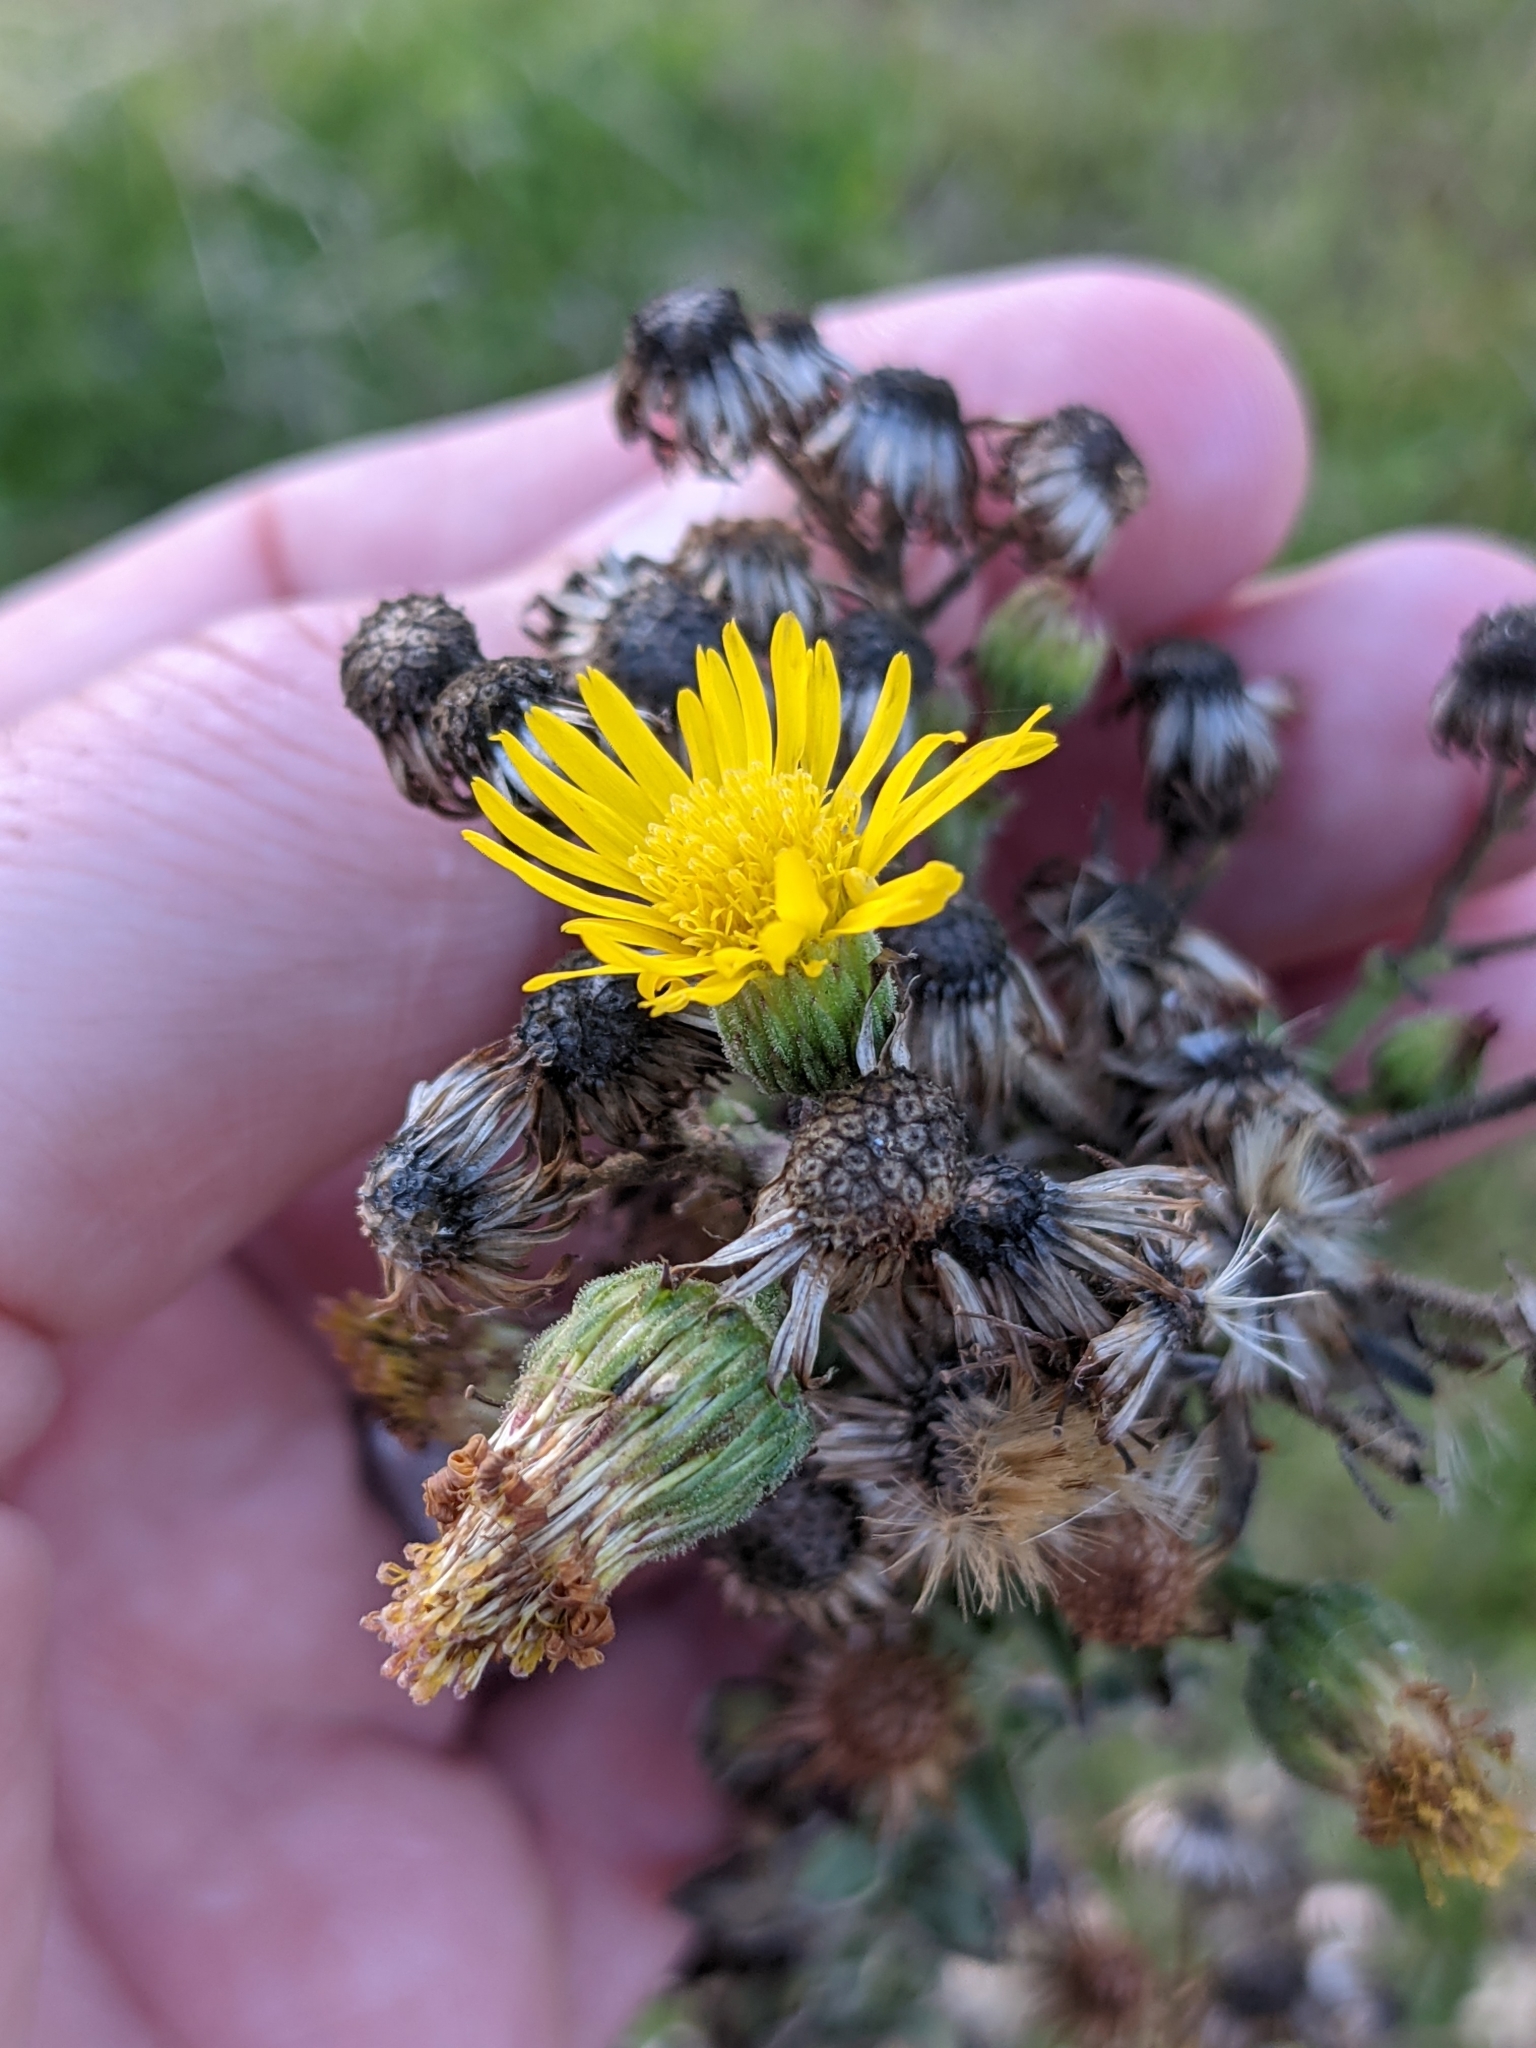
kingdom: Plantae
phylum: Tracheophyta
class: Magnoliopsida
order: Asterales
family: Asteraceae
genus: Heterotheca
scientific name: Heterotheca grandiflora
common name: Telegraphweed
